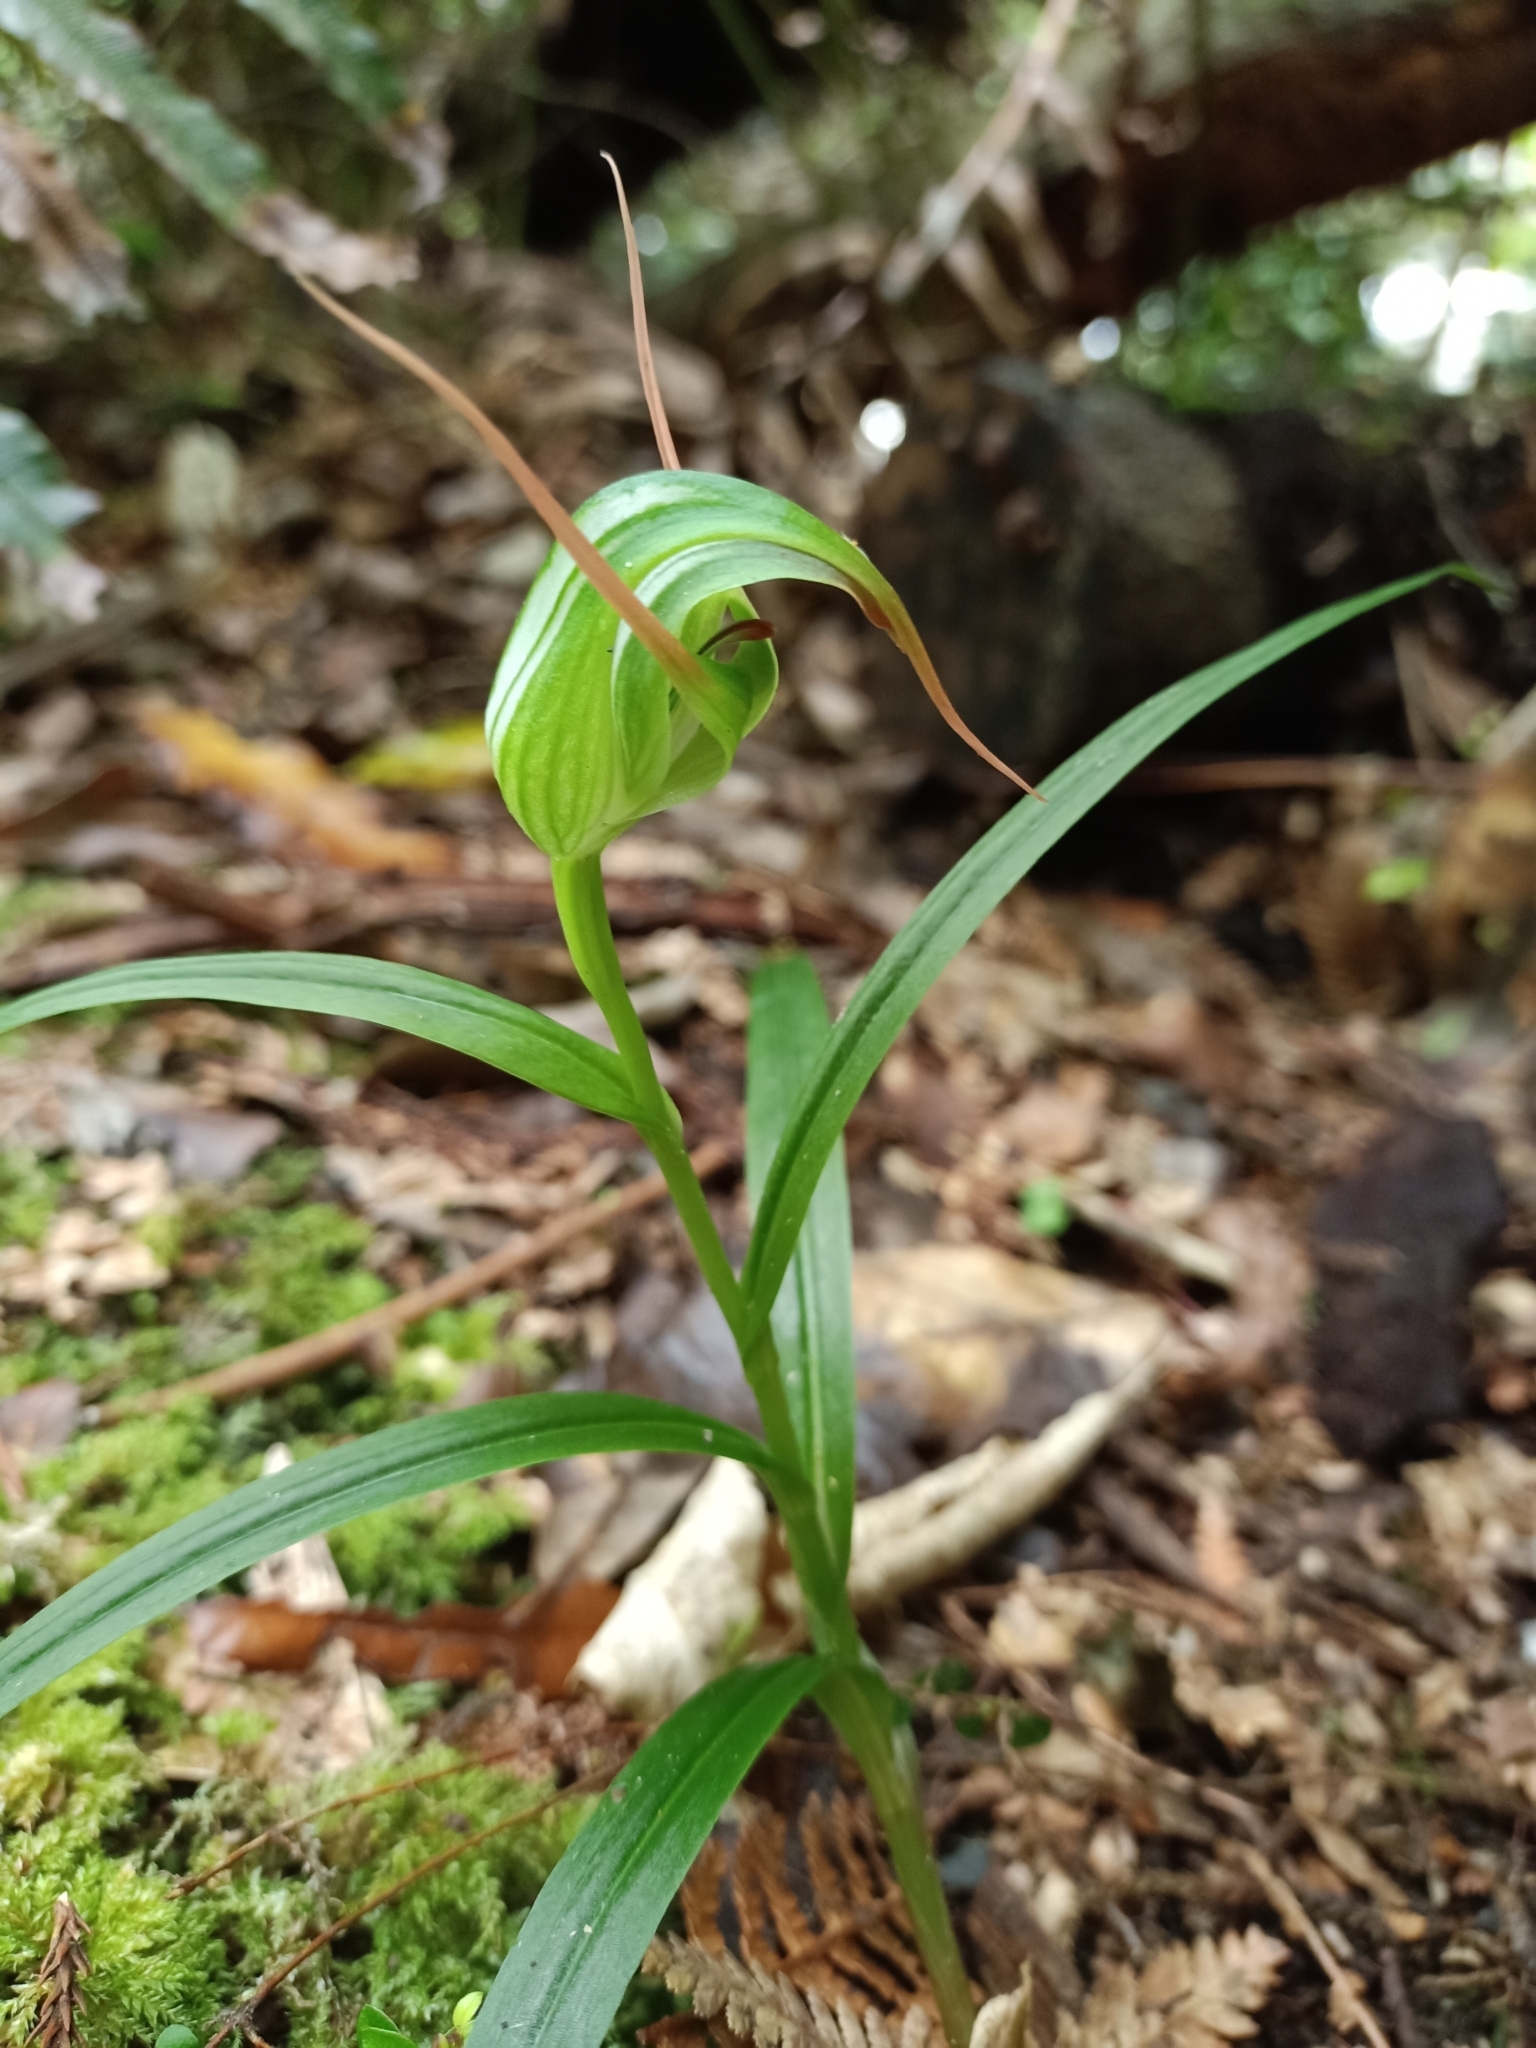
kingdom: Plantae
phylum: Tracheophyta
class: Liliopsida
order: Asparagales
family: Orchidaceae
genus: Pterostylis
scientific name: Pterostylis banksii
